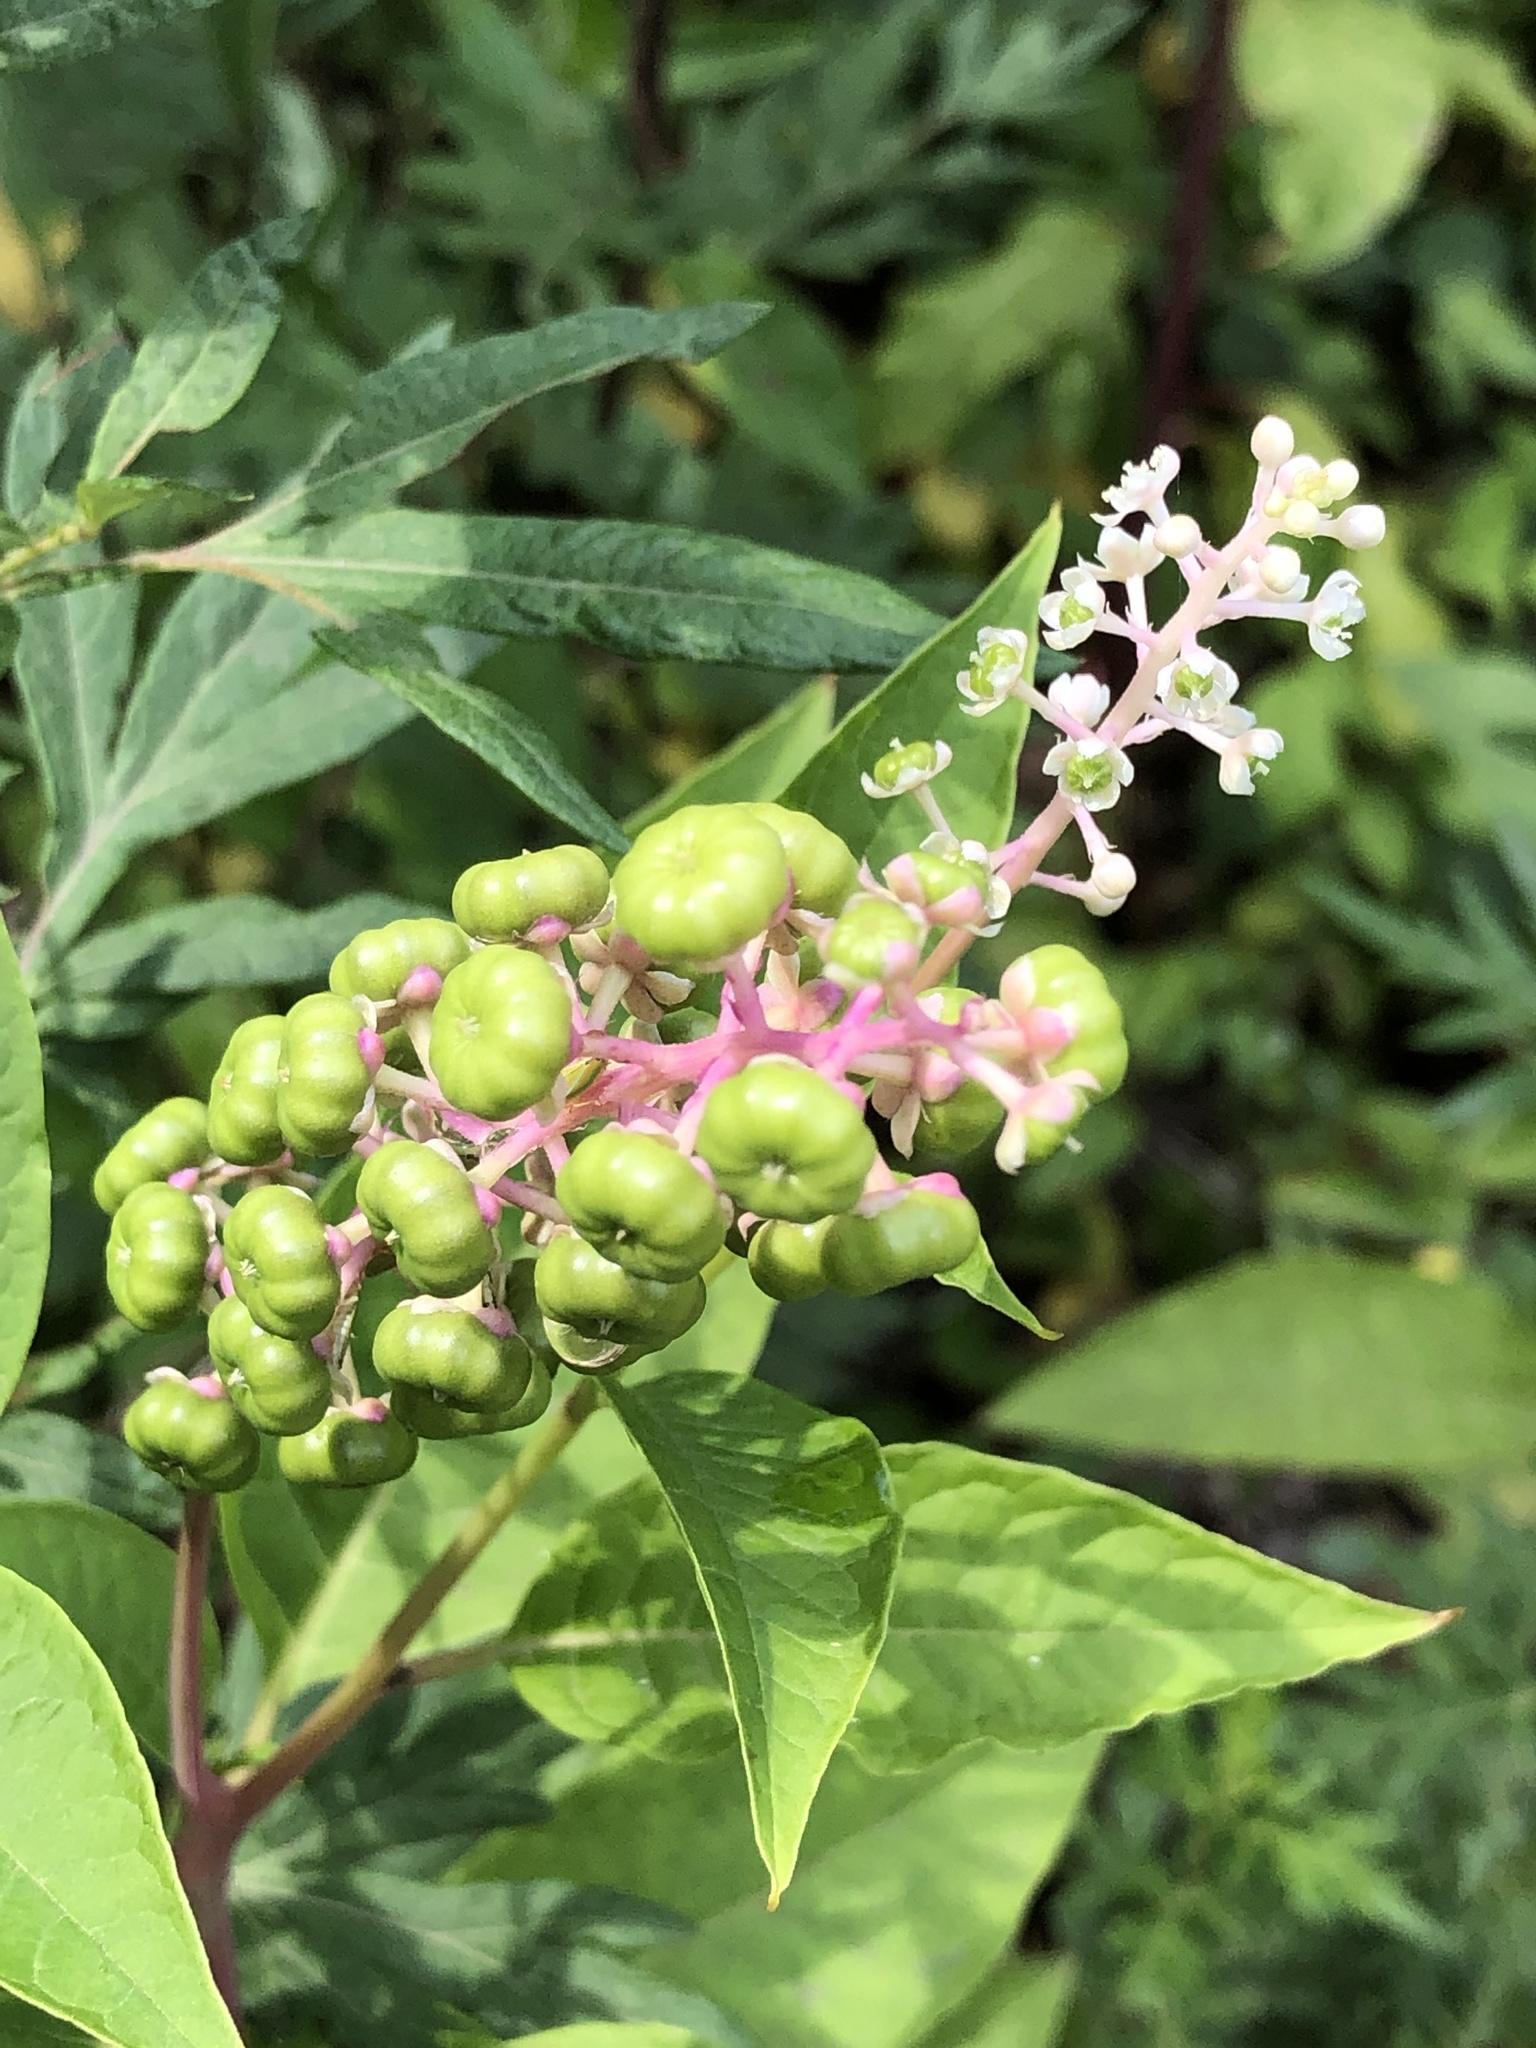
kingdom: Plantae
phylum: Tracheophyta
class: Magnoliopsida
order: Caryophyllales
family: Phytolaccaceae
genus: Phytolacca
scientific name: Phytolacca americana
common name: American pokeweed
